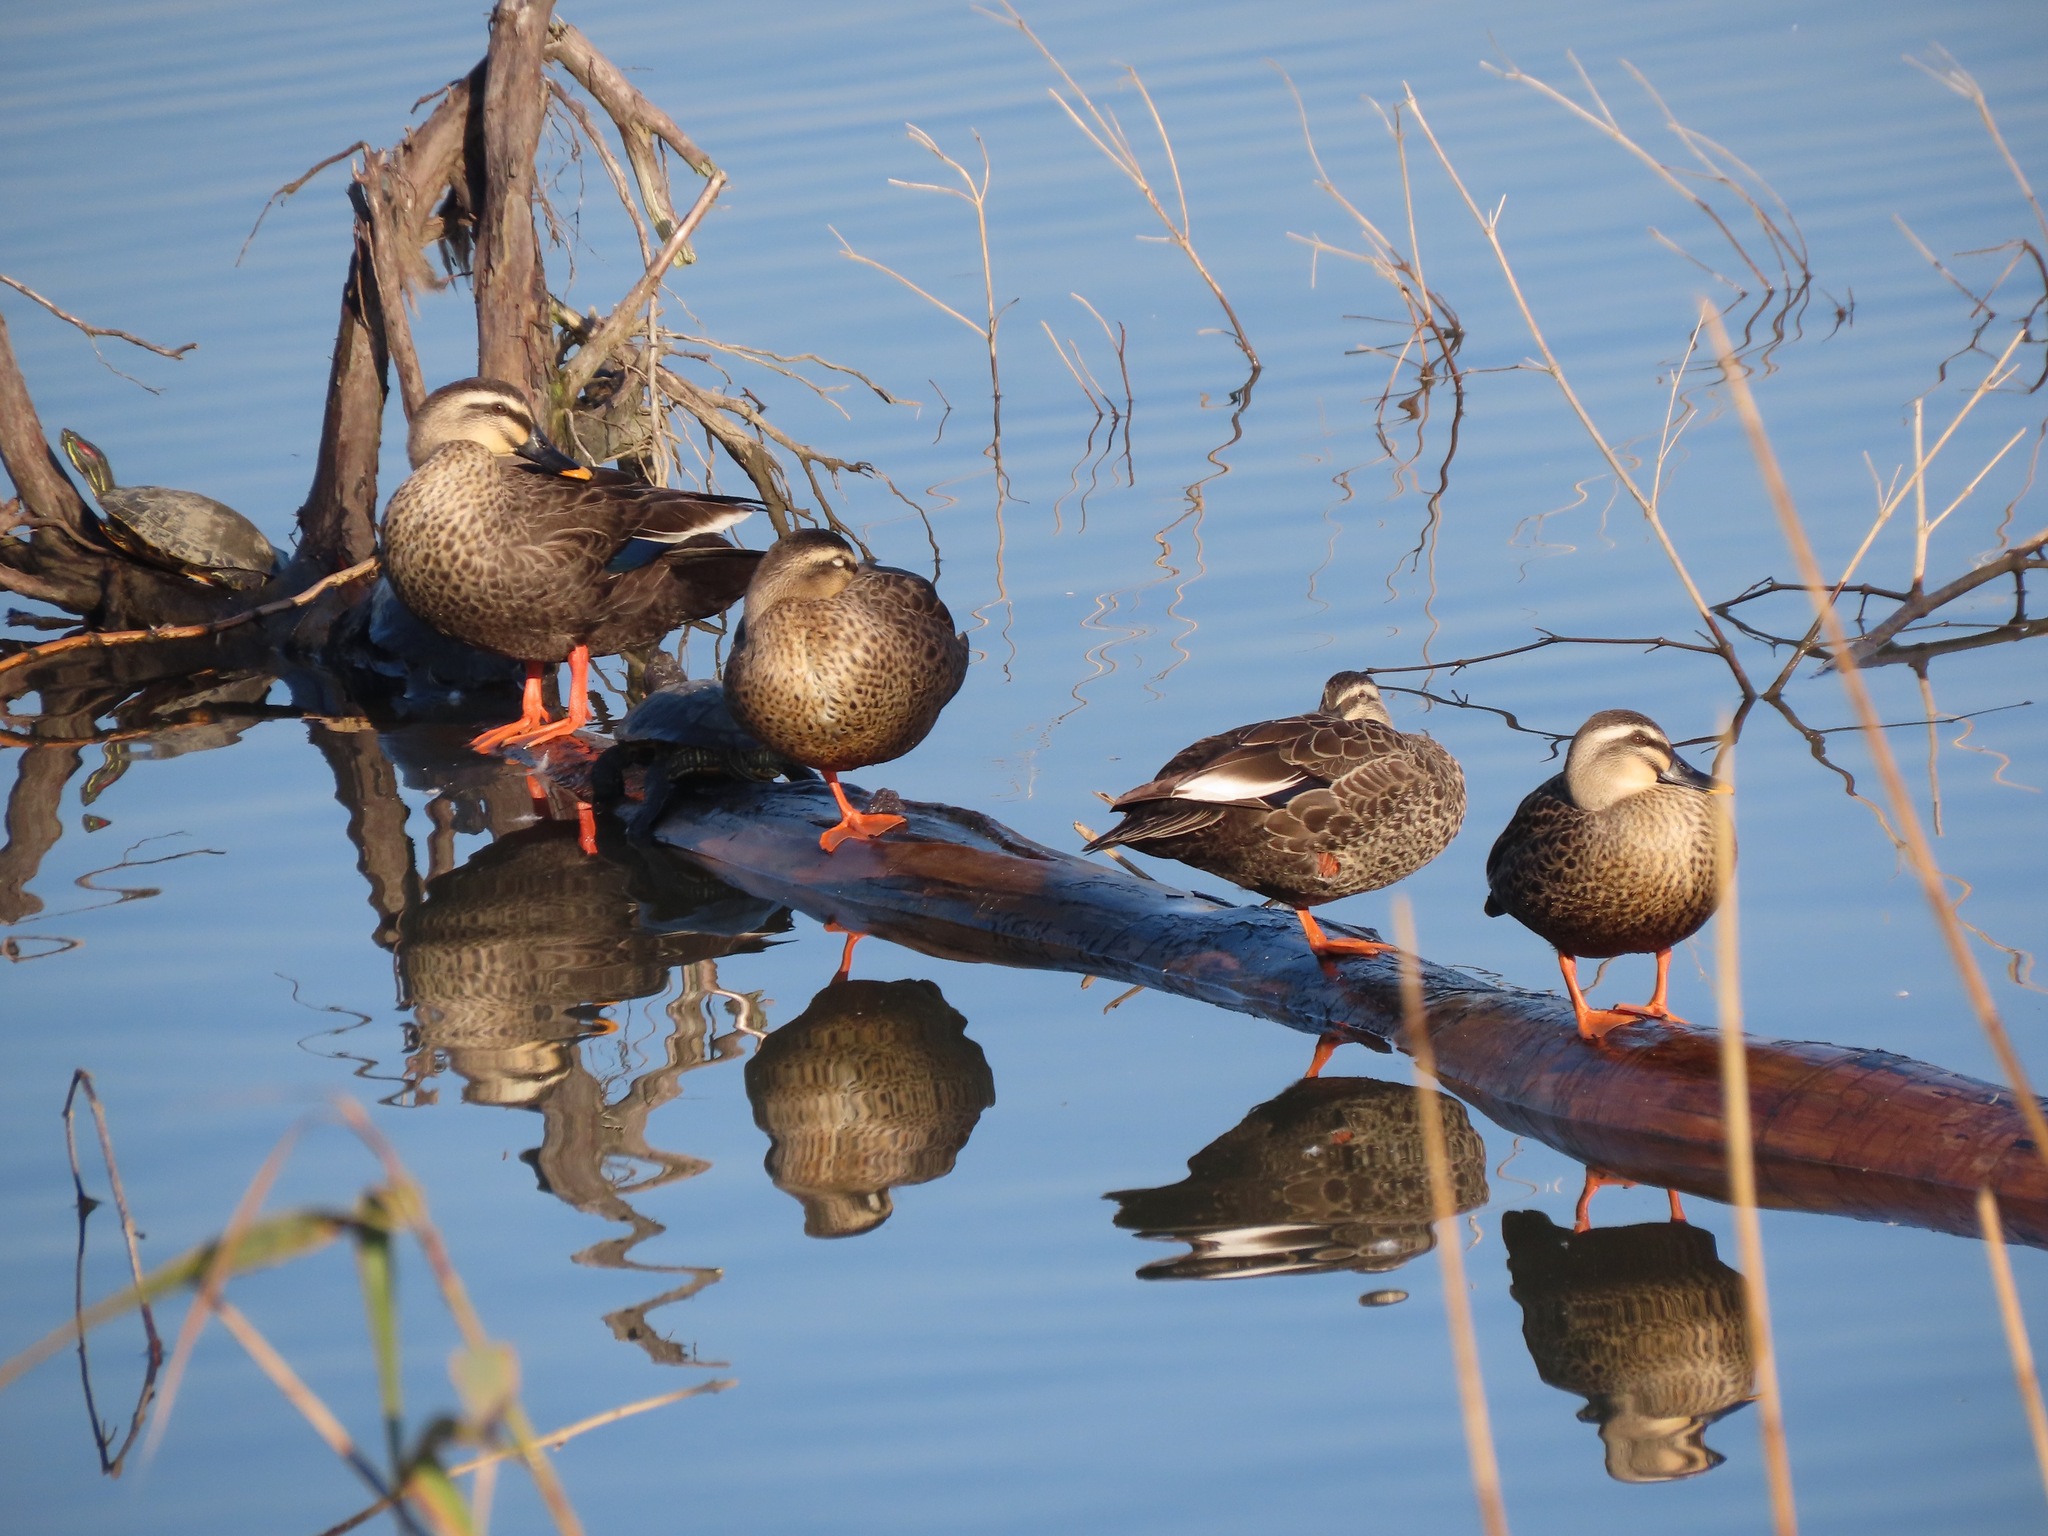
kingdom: Animalia
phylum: Chordata
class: Aves
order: Anseriformes
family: Anatidae
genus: Anas
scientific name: Anas zonorhyncha
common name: Eastern spot-billed duck
